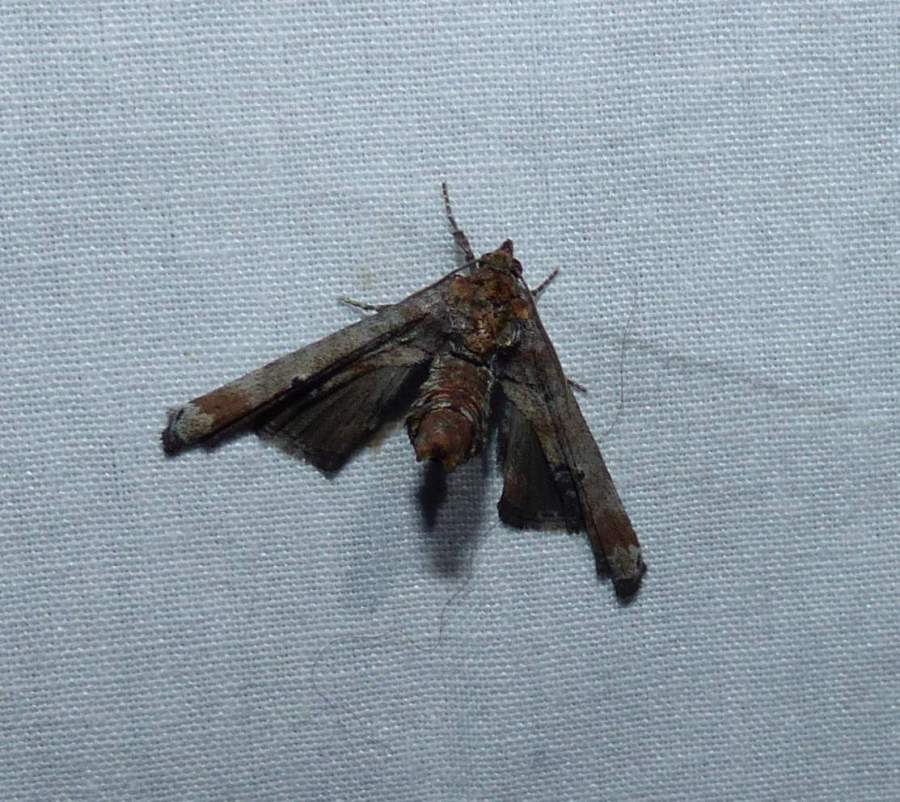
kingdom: Animalia
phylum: Arthropoda
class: Insecta
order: Lepidoptera
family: Euteliidae
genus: Marathyssa
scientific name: Marathyssa inficita
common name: Dark marathyssa moth
